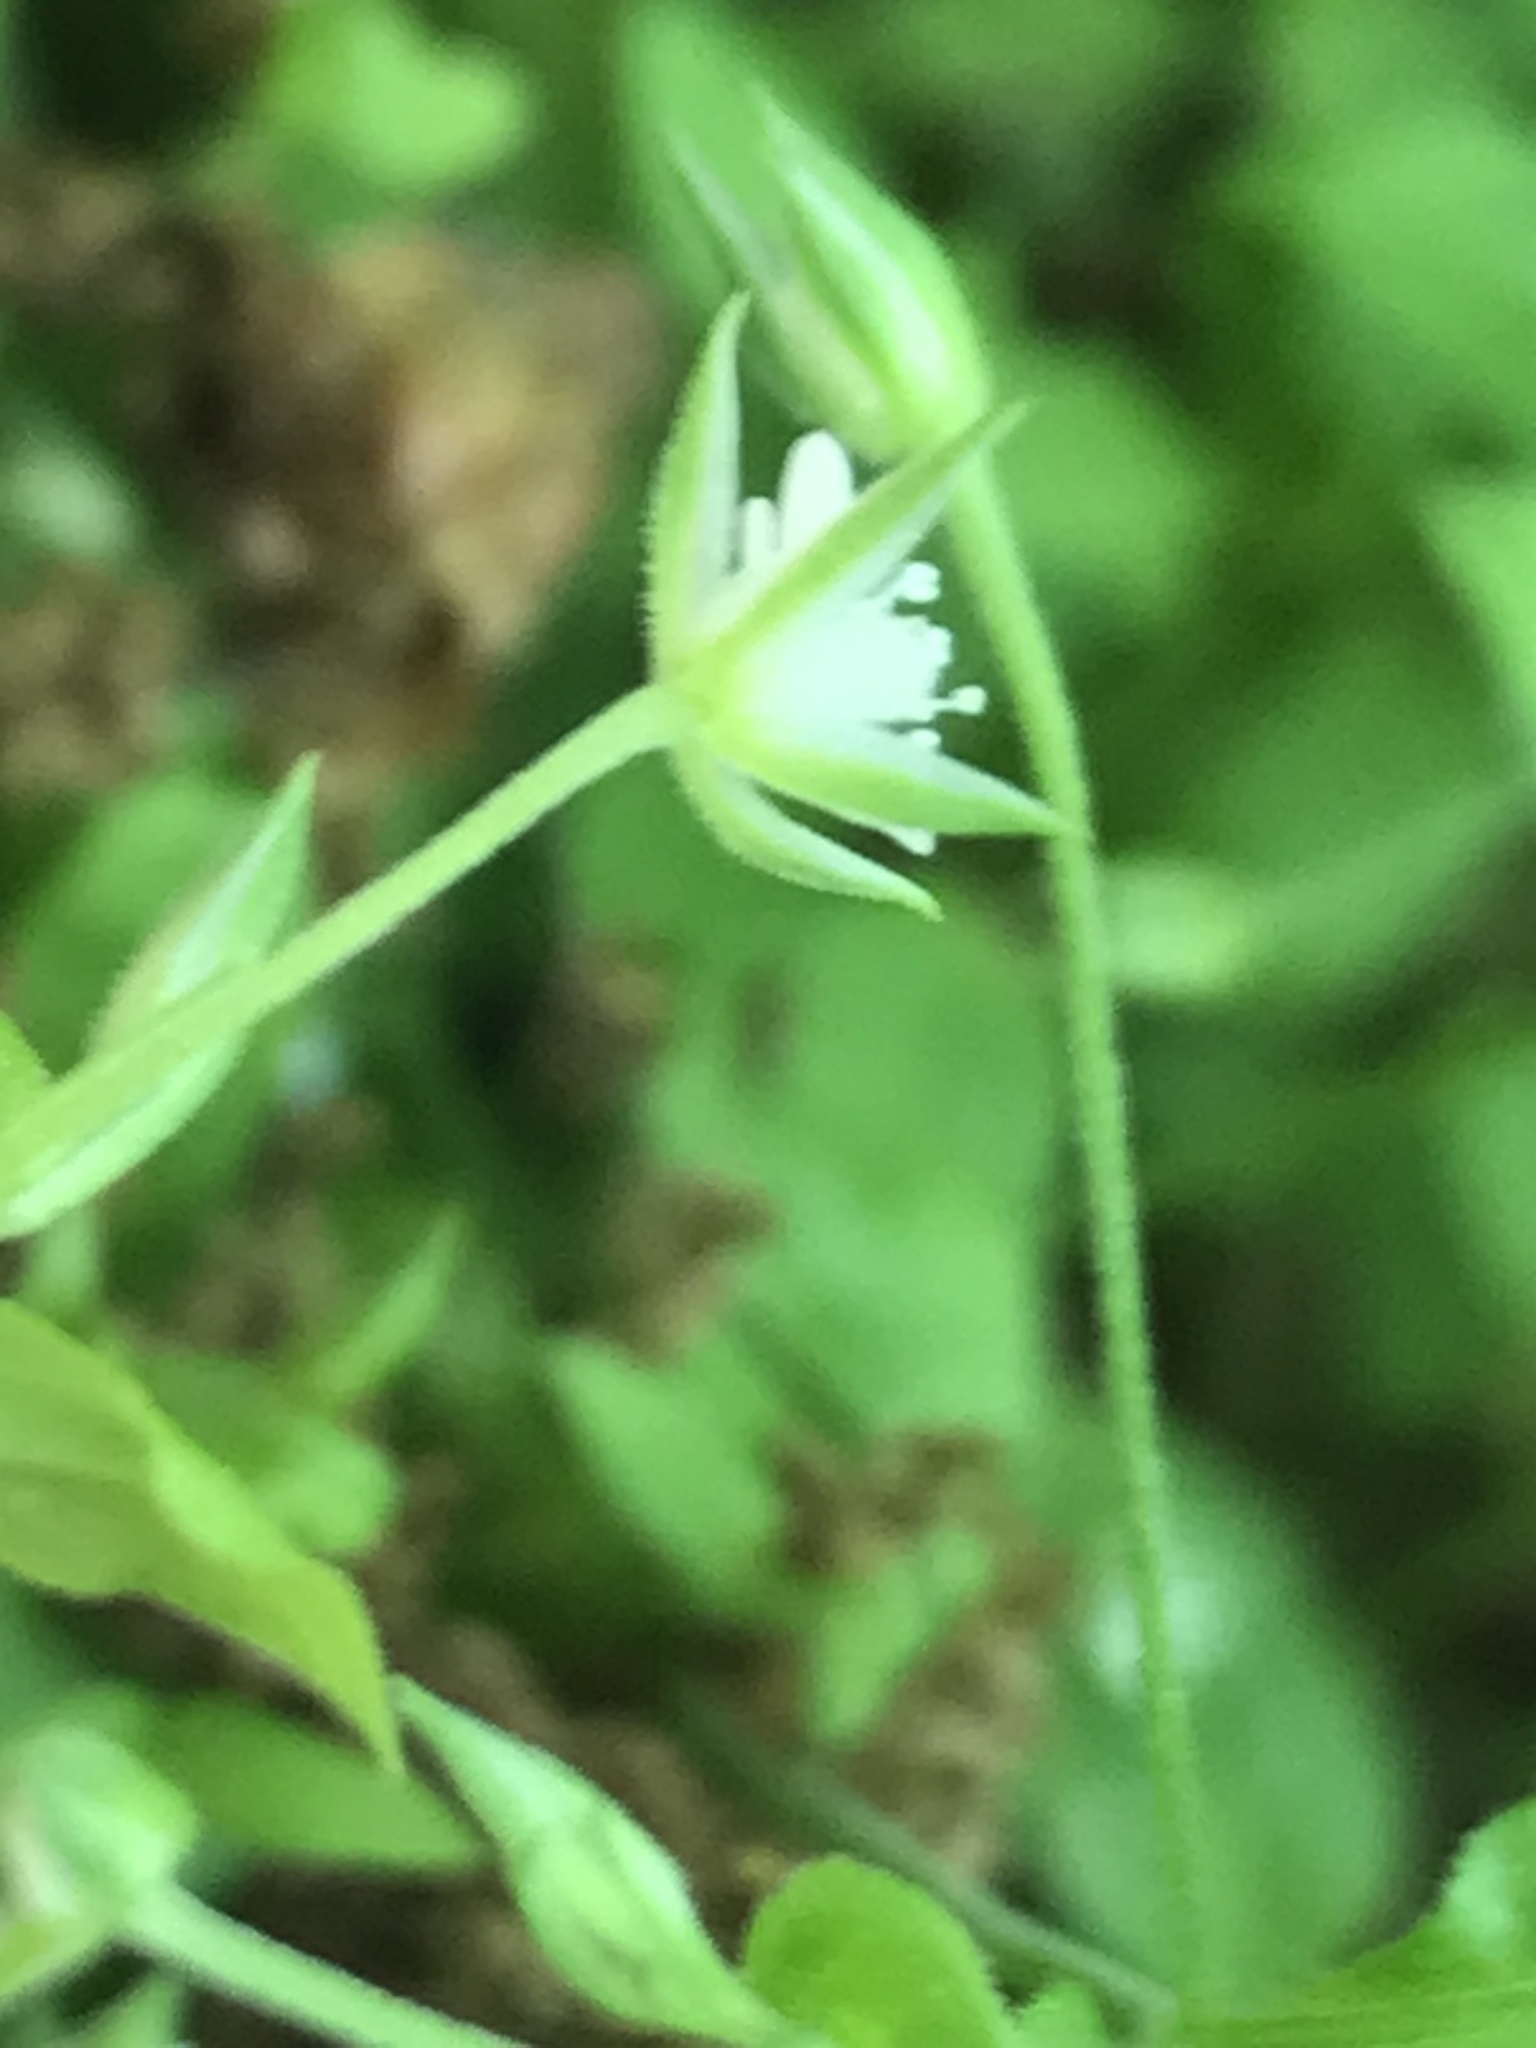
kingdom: Plantae
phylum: Tracheophyta
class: Magnoliopsida
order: Caryophyllales
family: Caryophyllaceae
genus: Moehringia
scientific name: Moehringia trinervia
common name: Three-nerved sandwort
